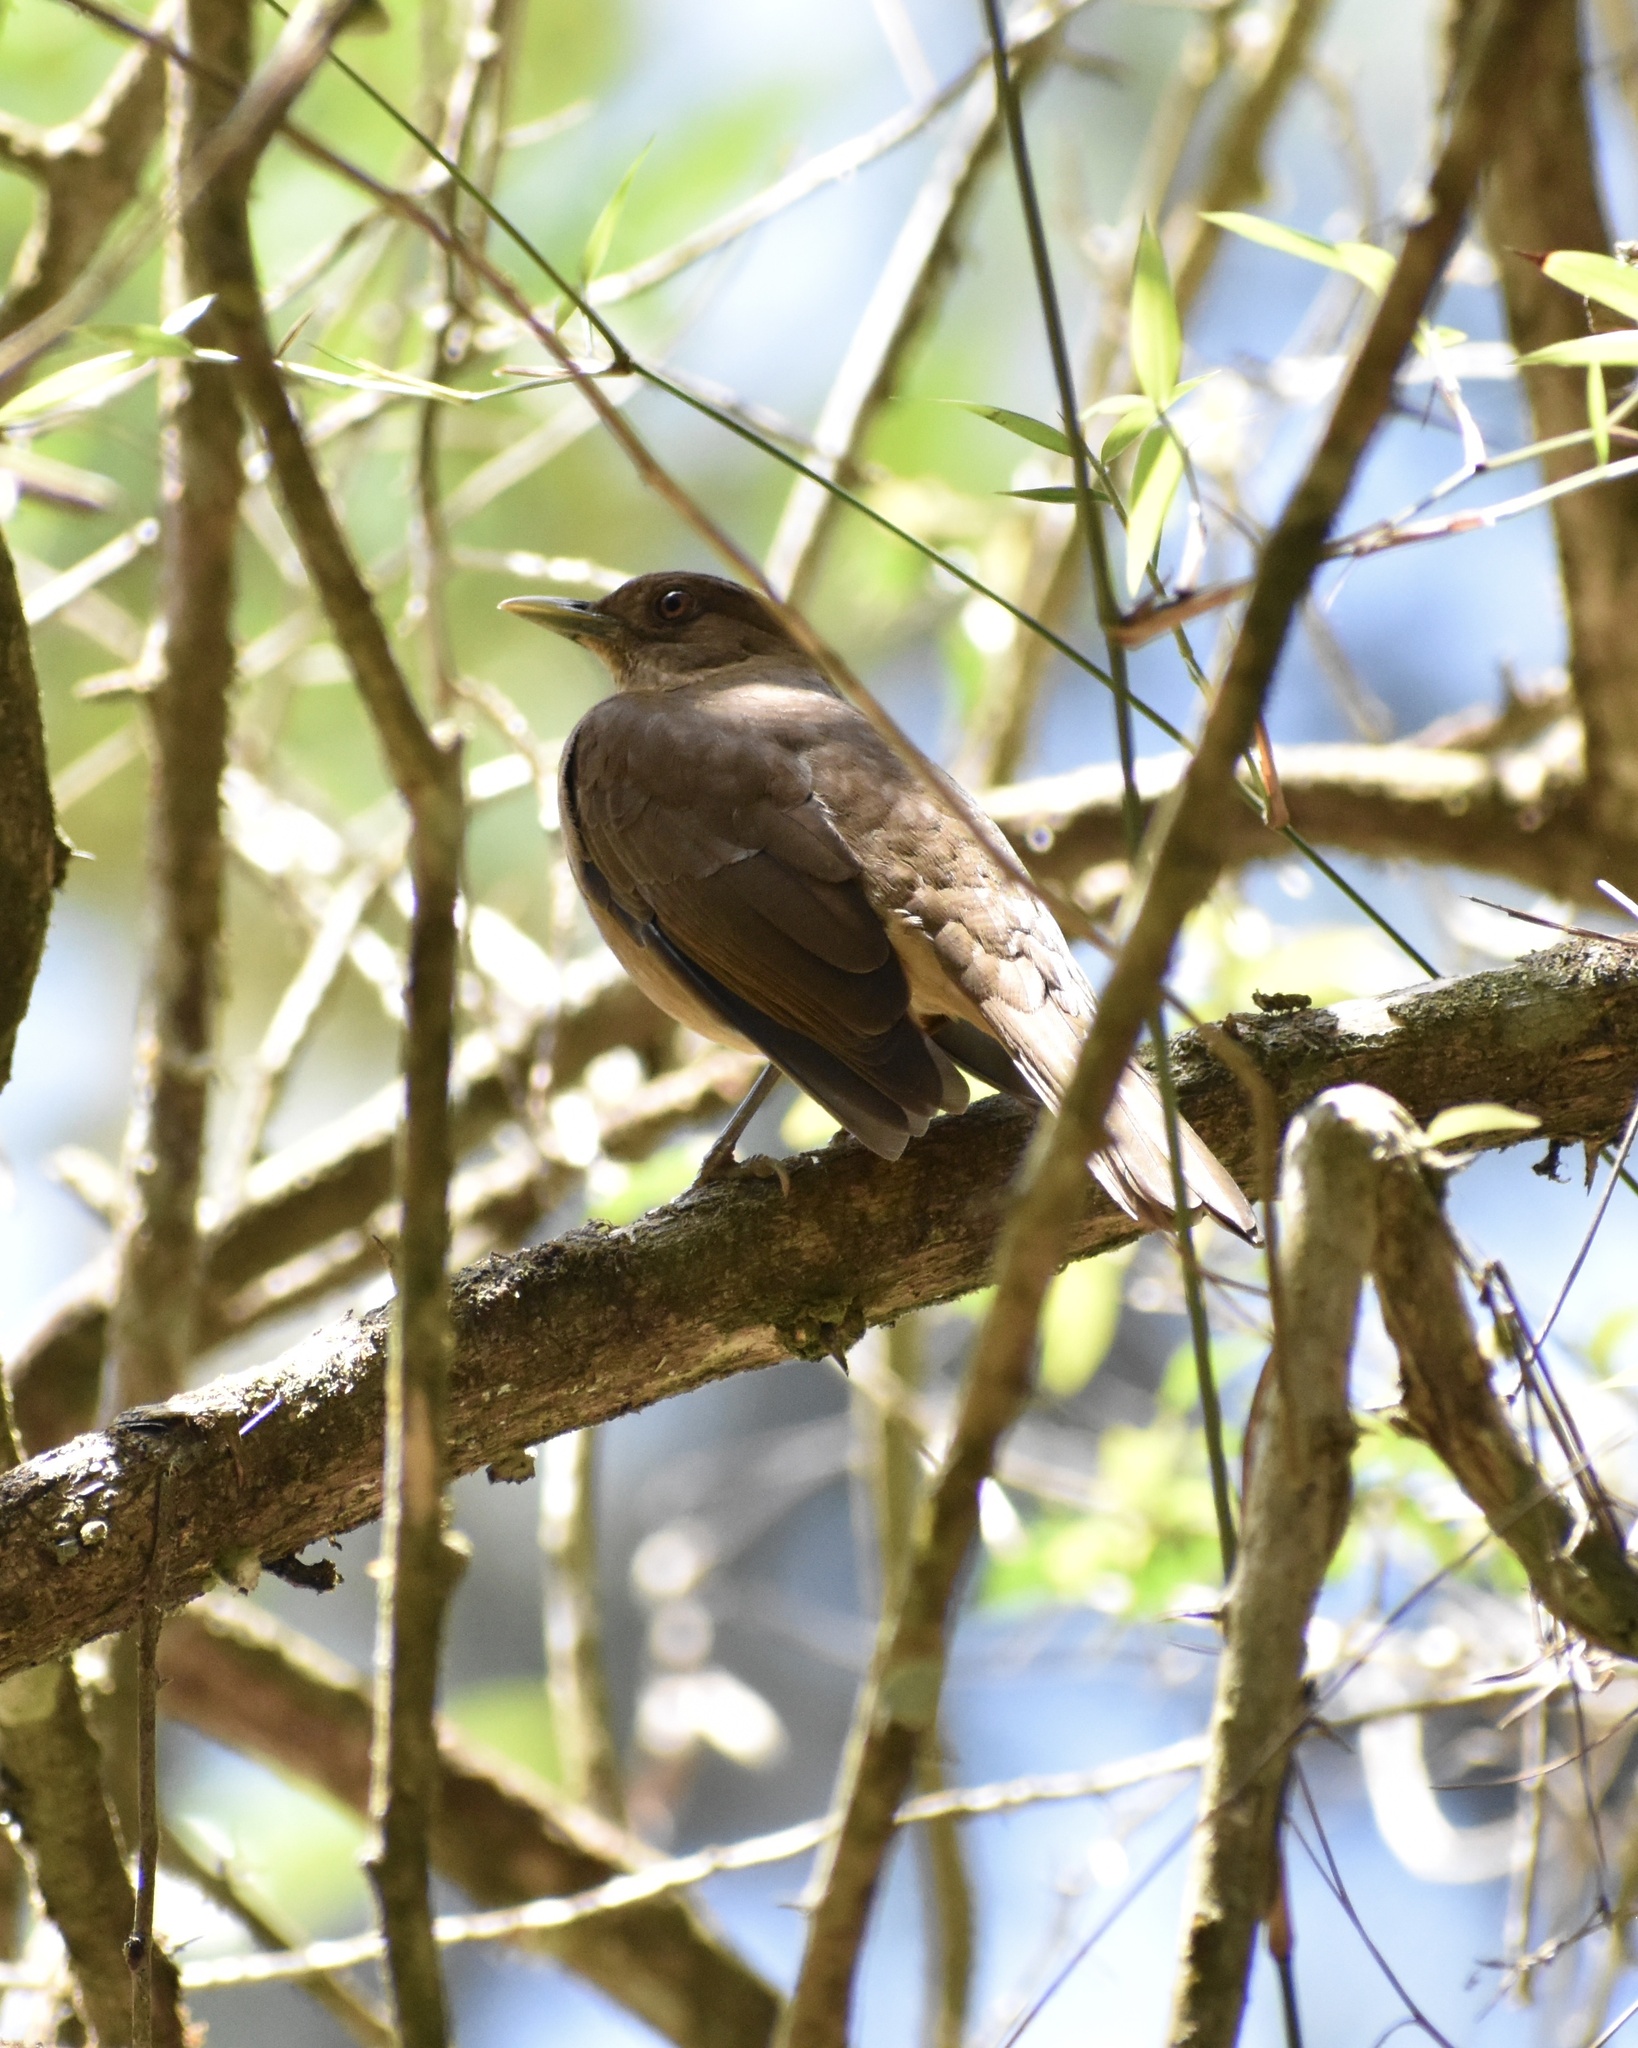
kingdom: Animalia
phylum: Chordata
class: Aves
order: Passeriformes
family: Turdidae
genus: Turdus
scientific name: Turdus grayi
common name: Clay-colored thrush
